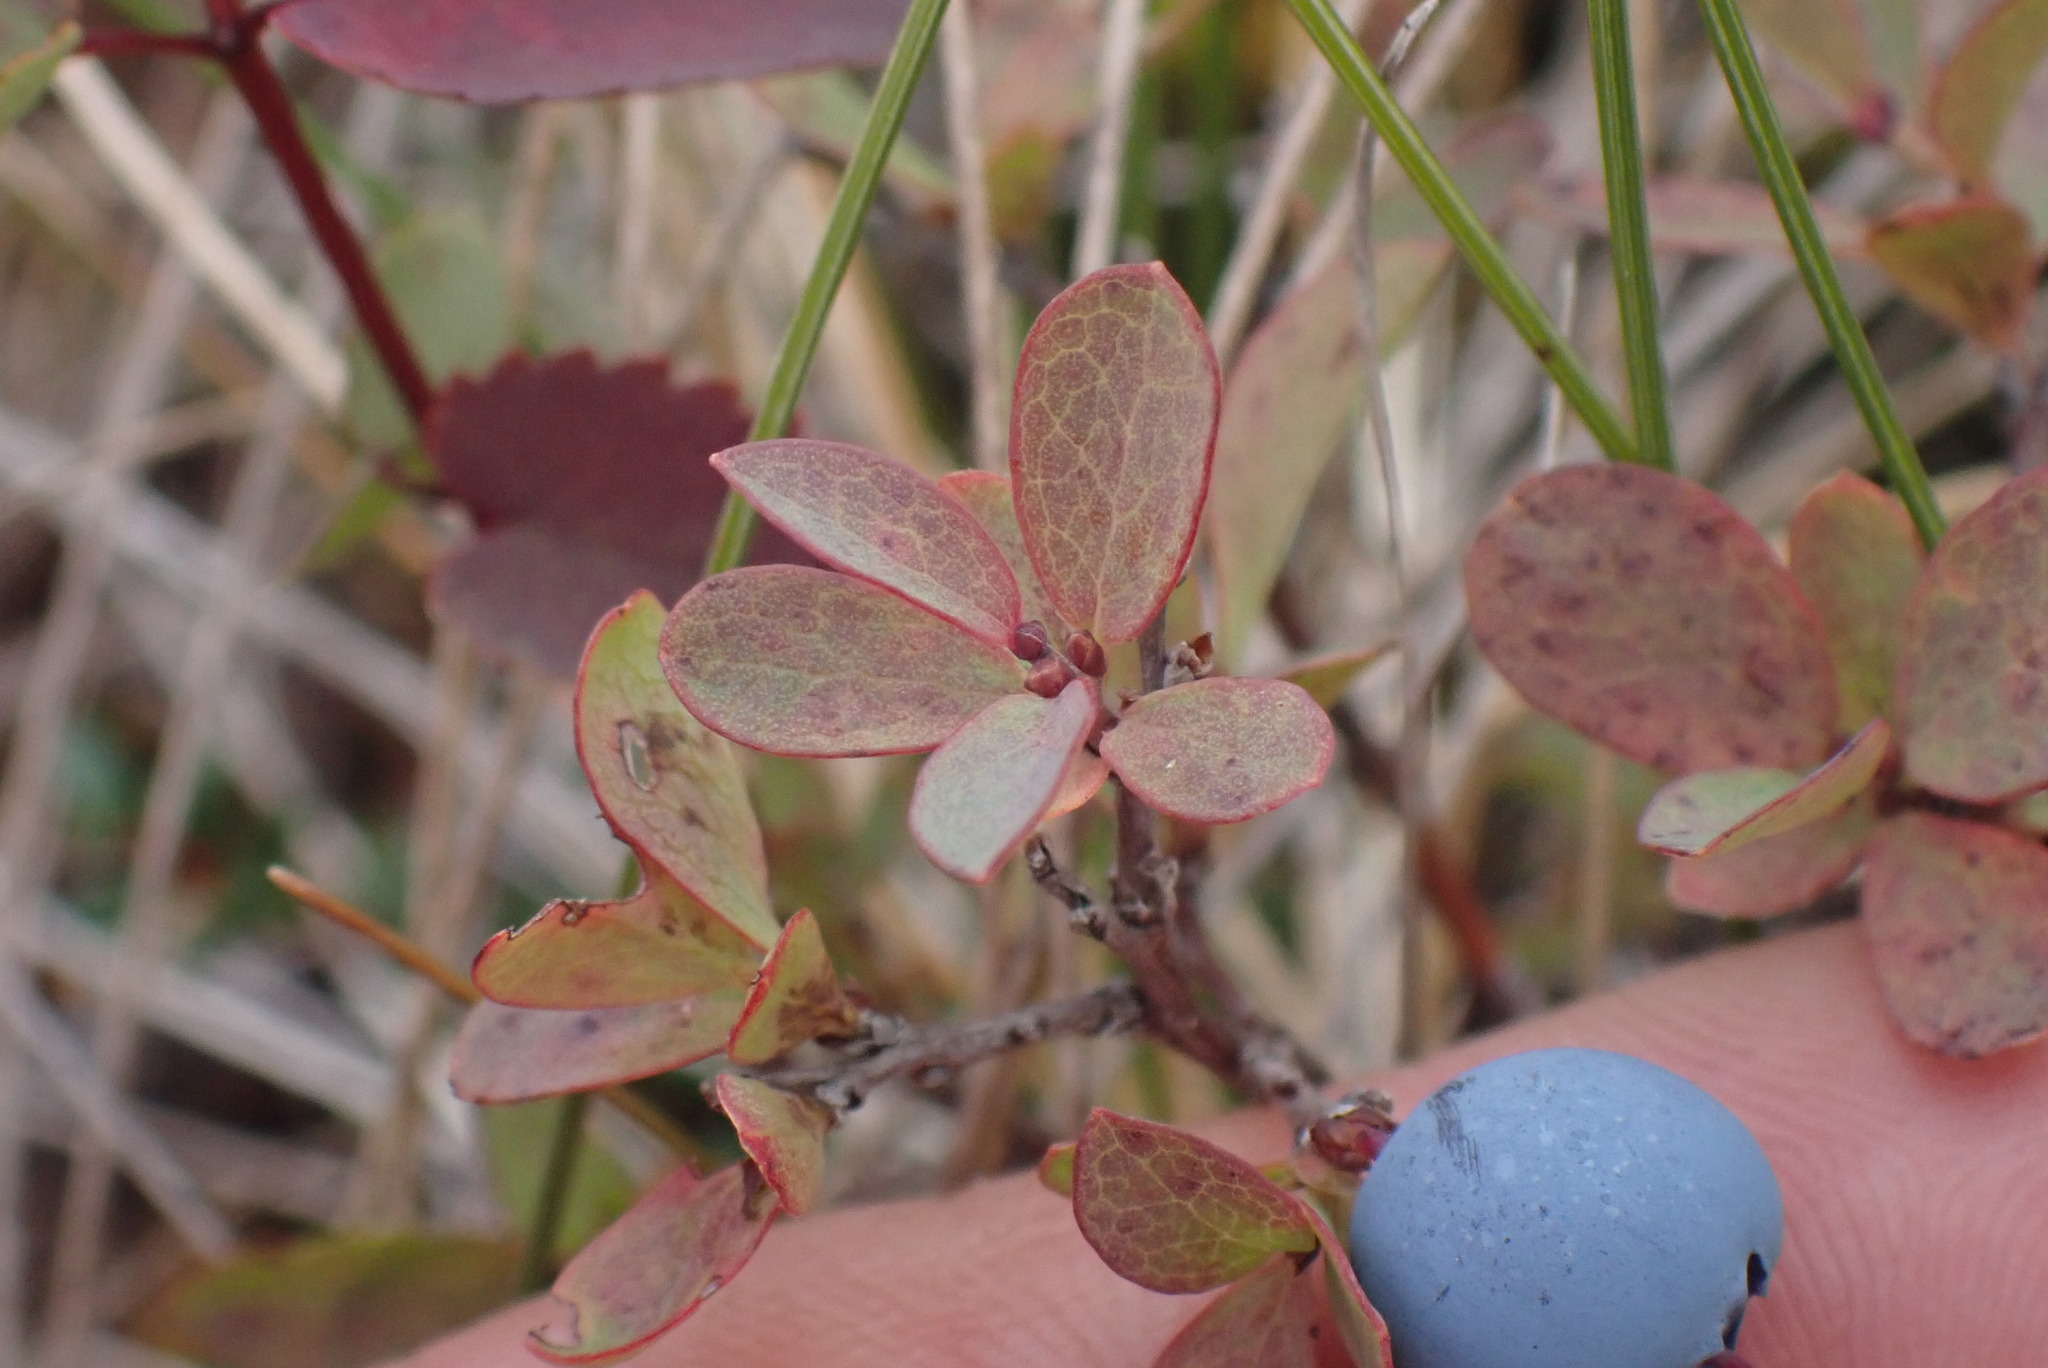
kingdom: Plantae
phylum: Tracheophyta
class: Magnoliopsida
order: Ericales
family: Ericaceae
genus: Vaccinium
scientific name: Vaccinium uliginosum
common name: Bog bilberry
